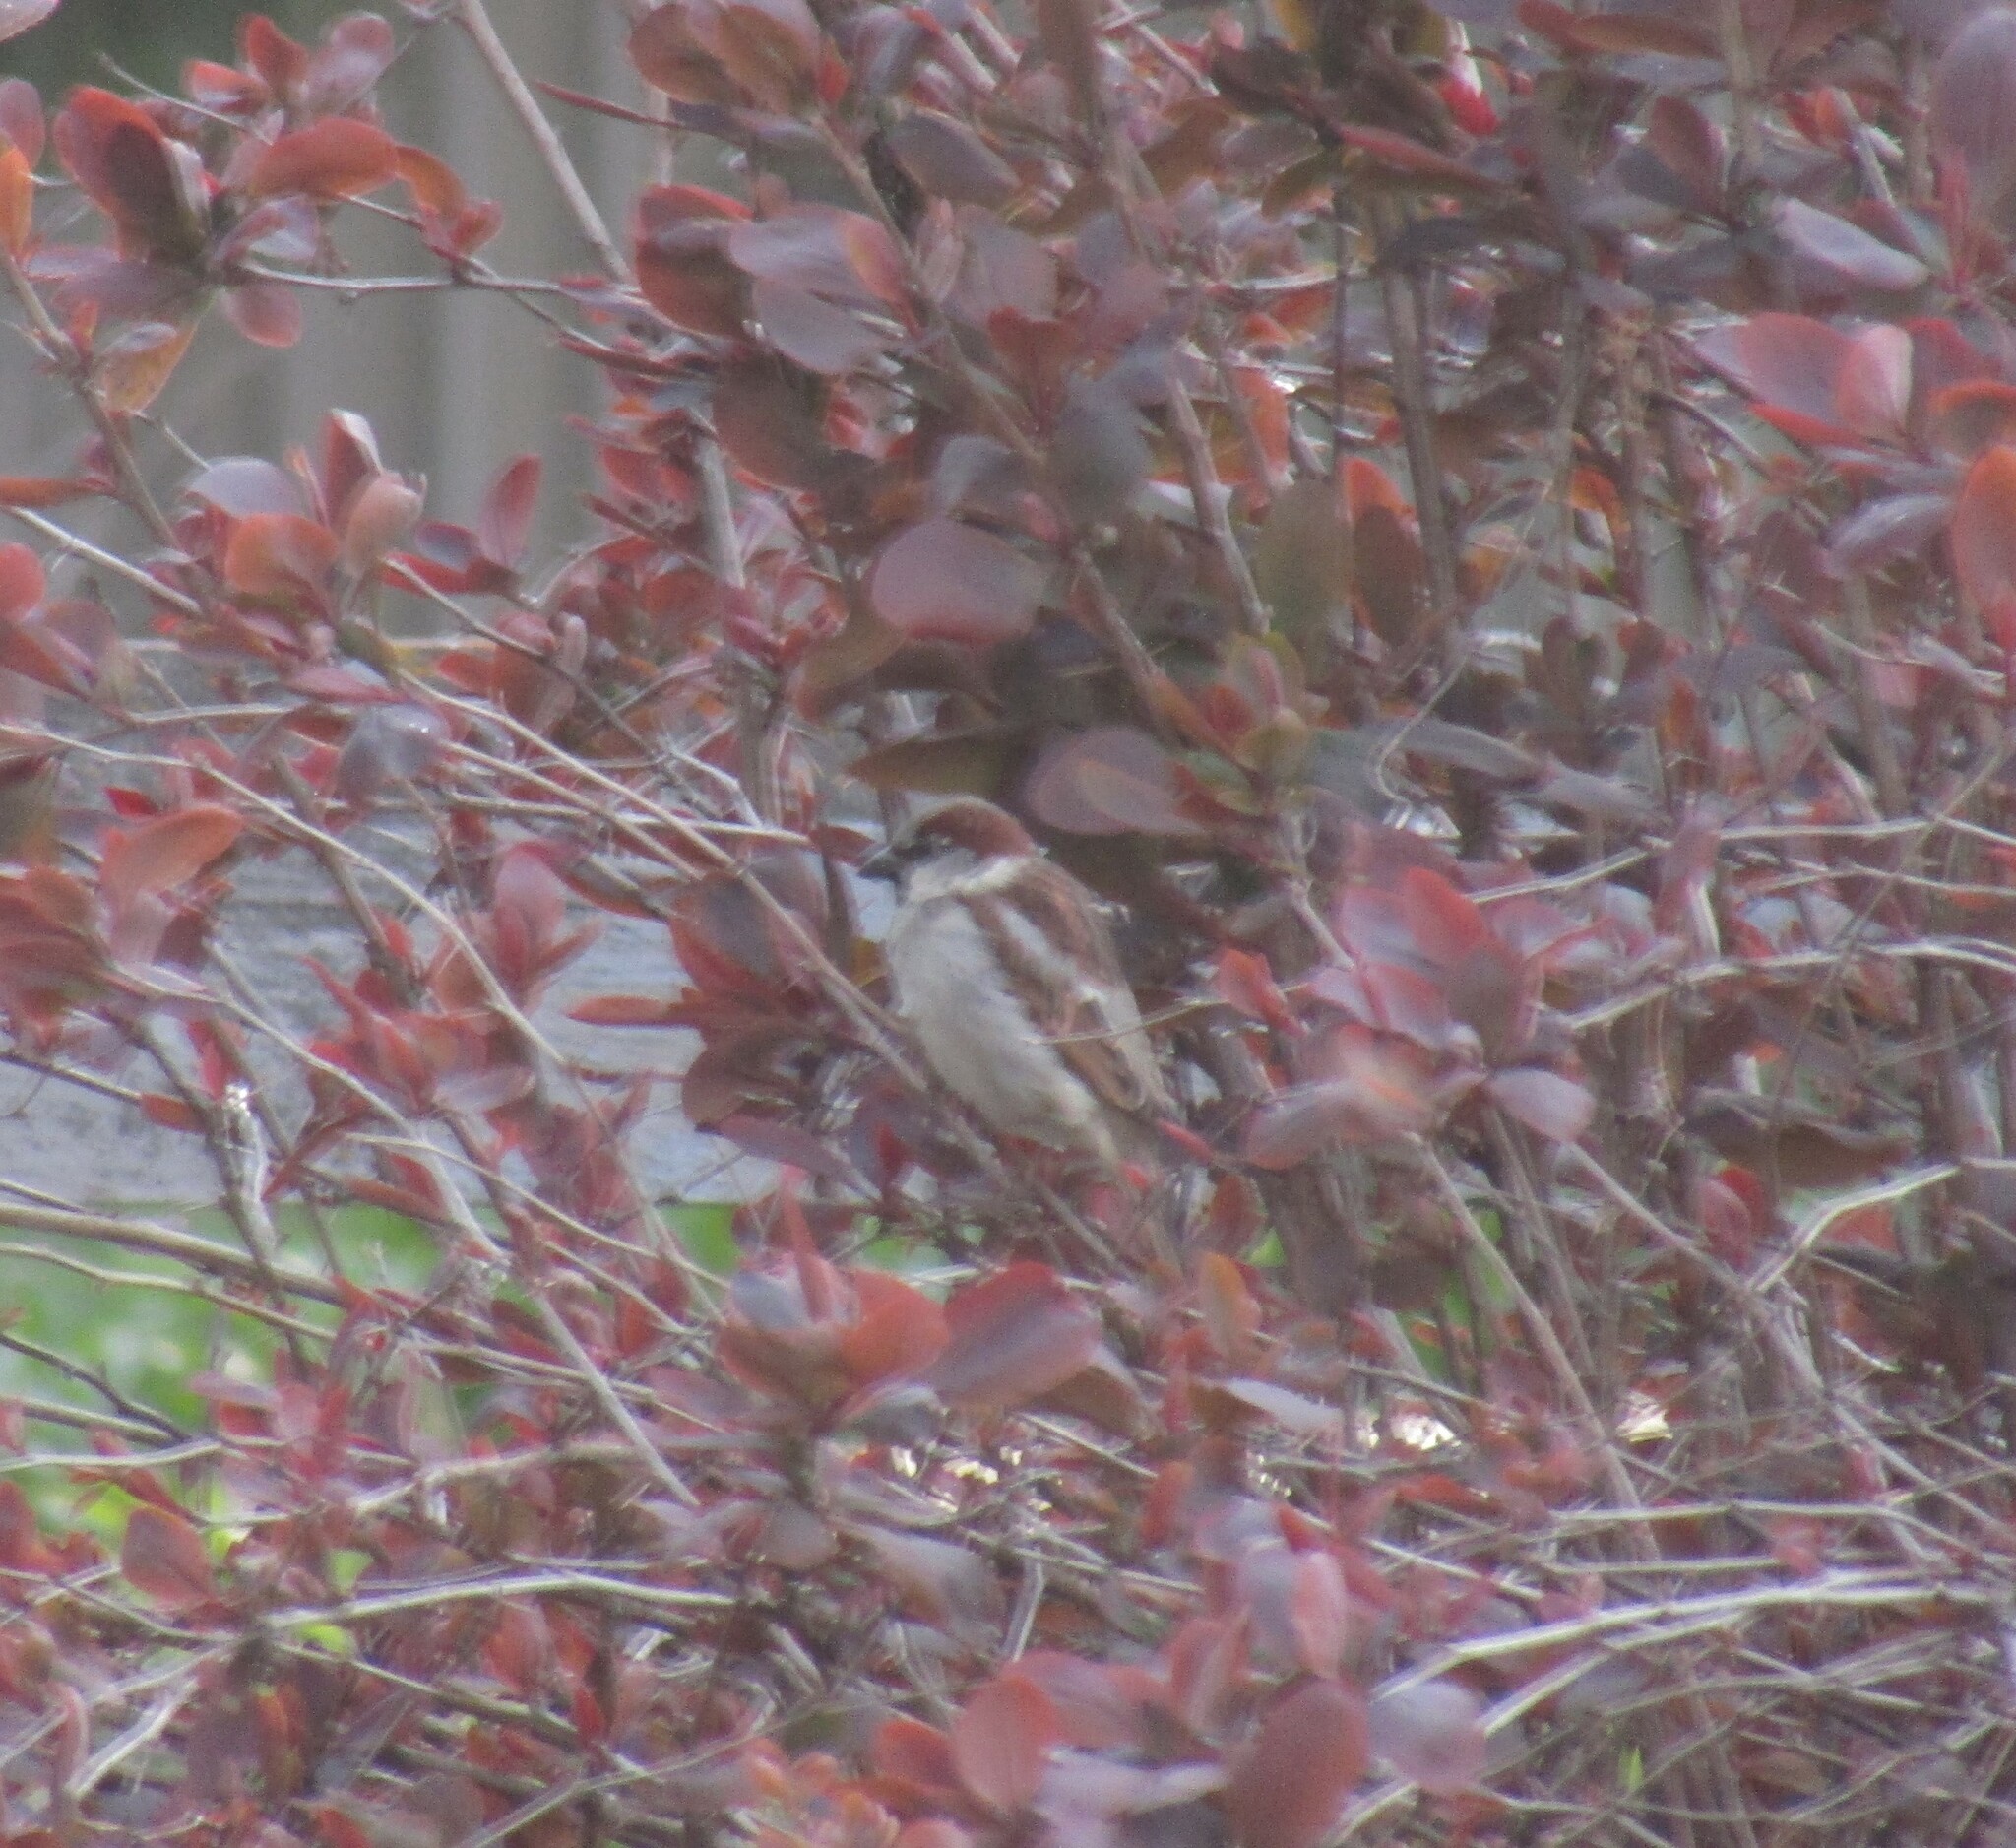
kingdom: Animalia
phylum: Chordata
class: Aves
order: Passeriformes
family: Passeridae
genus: Passer
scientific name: Passer domesticus
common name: House sparrow
